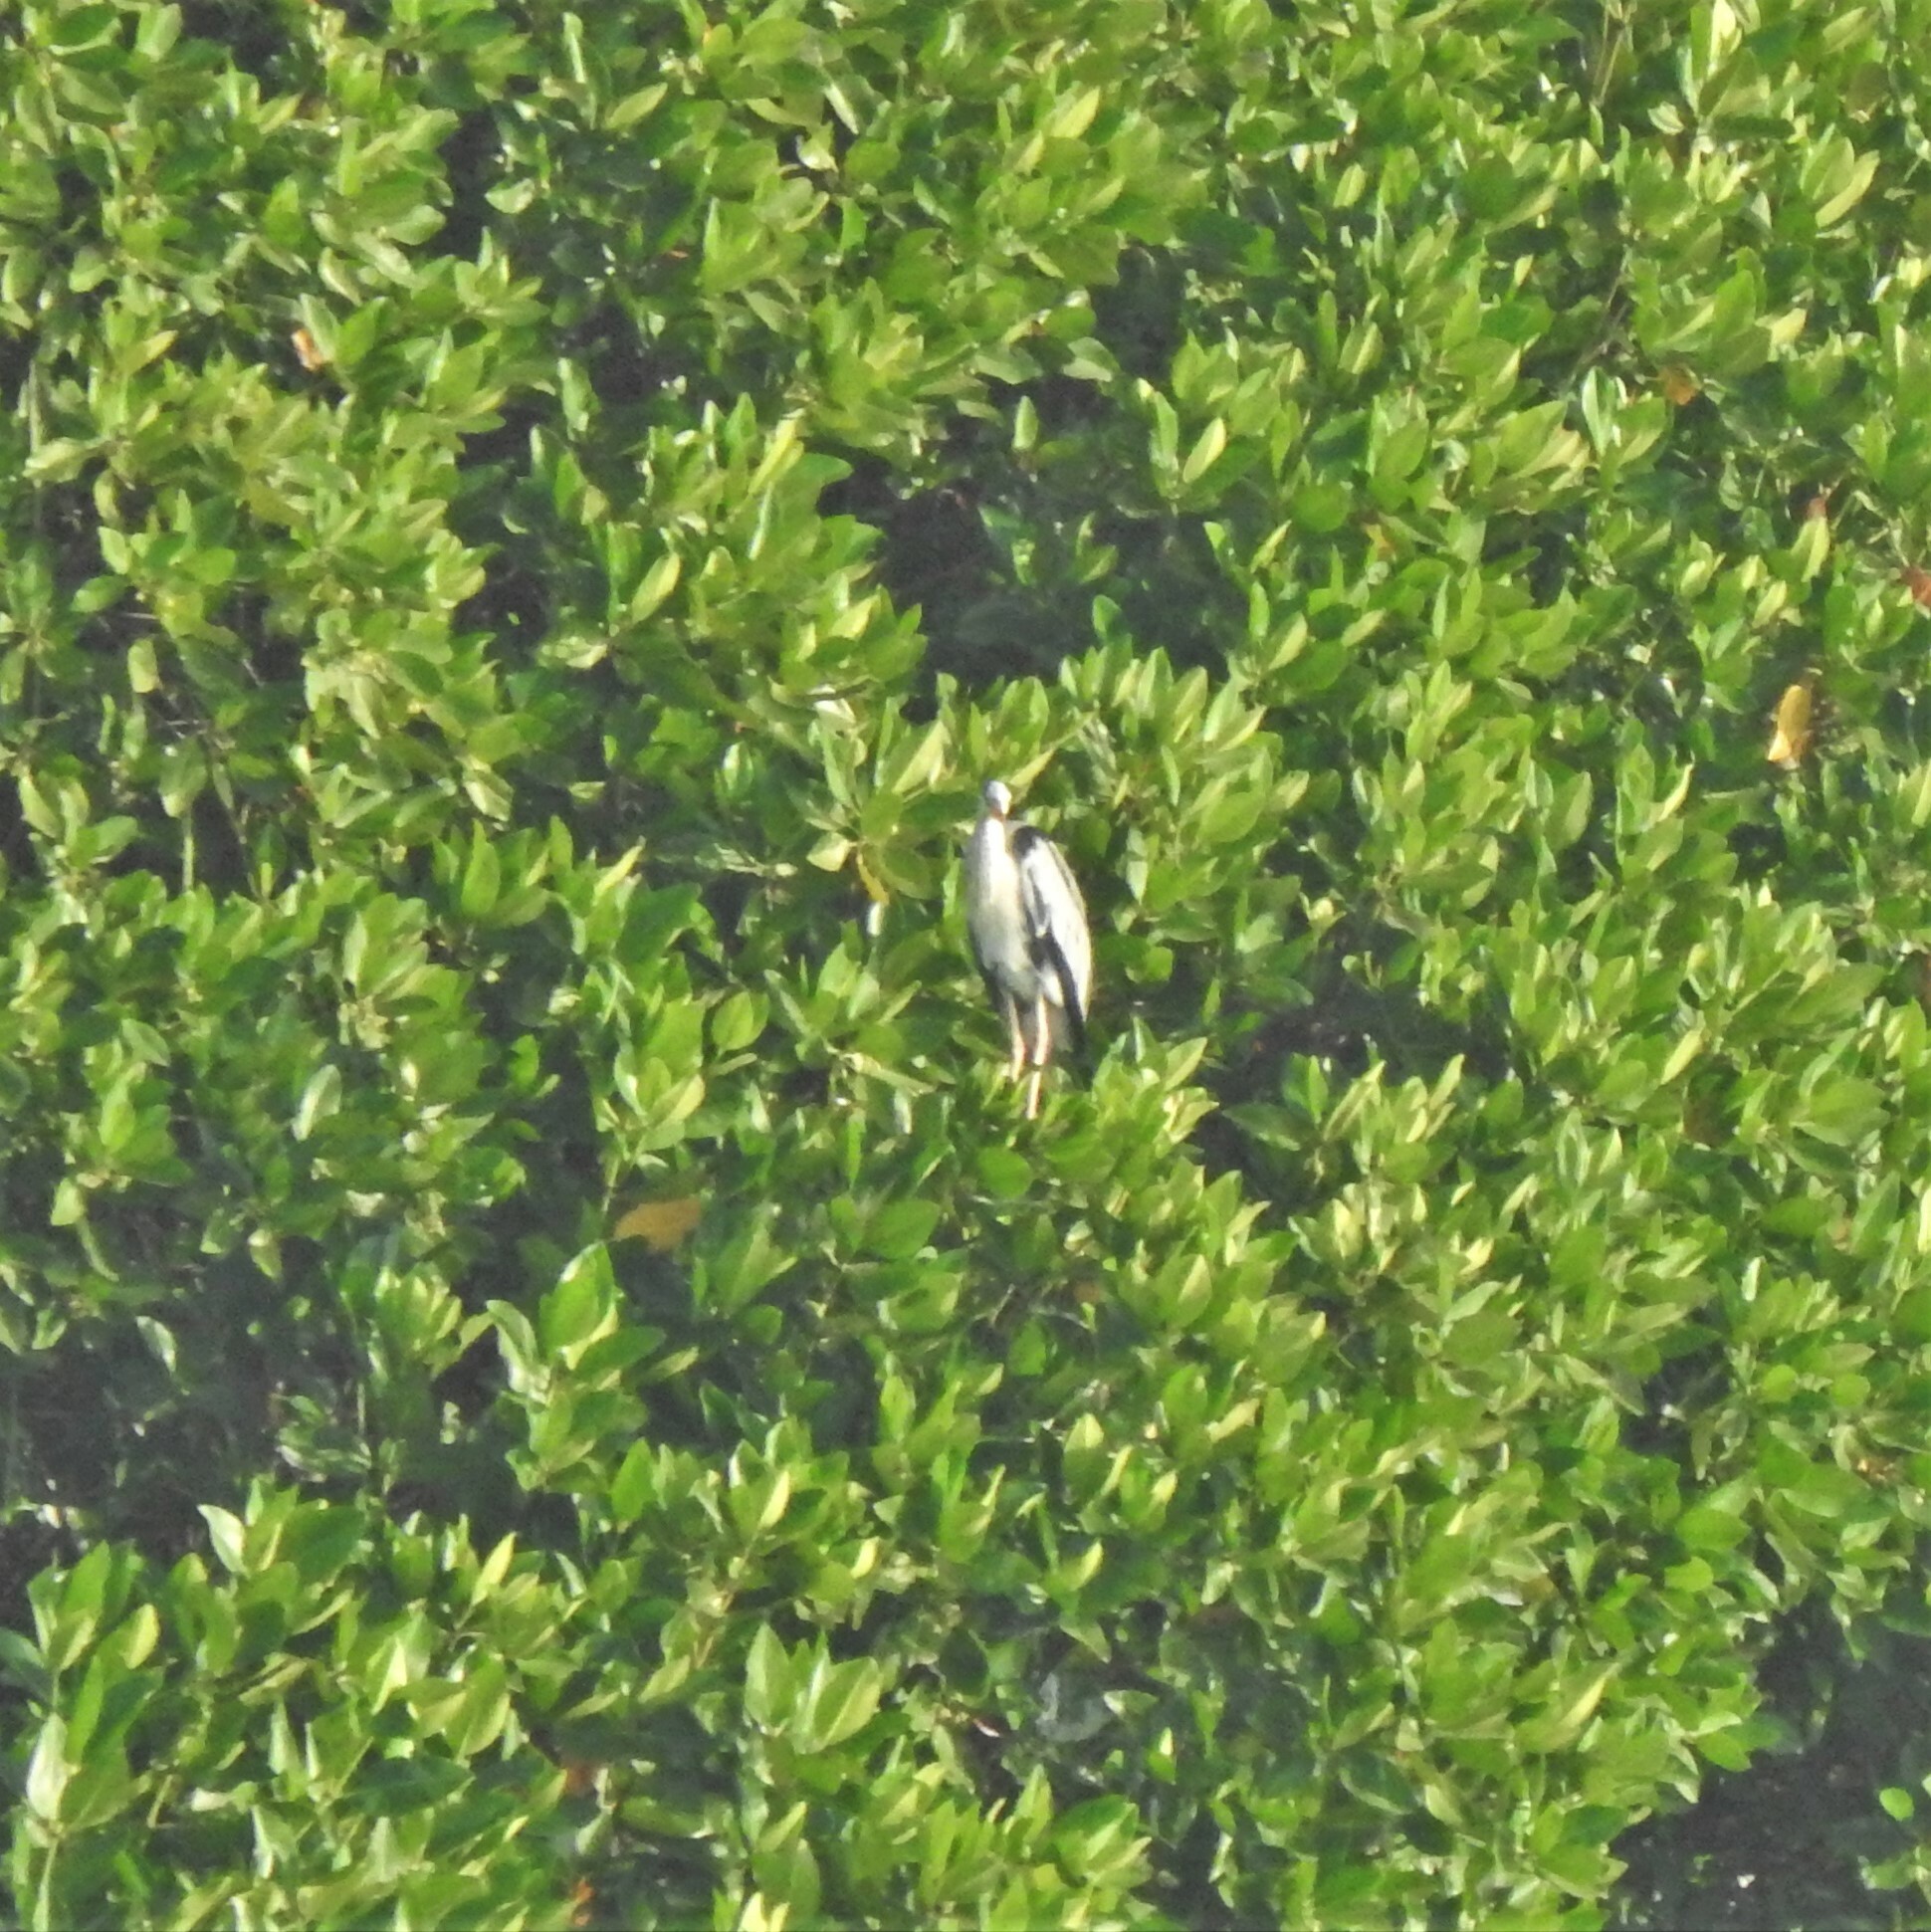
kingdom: Animalia
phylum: Chordata
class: Aves
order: Pelecaniformes
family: Ardeidae
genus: Ardea
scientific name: Ardea cinerea
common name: Grey heron
